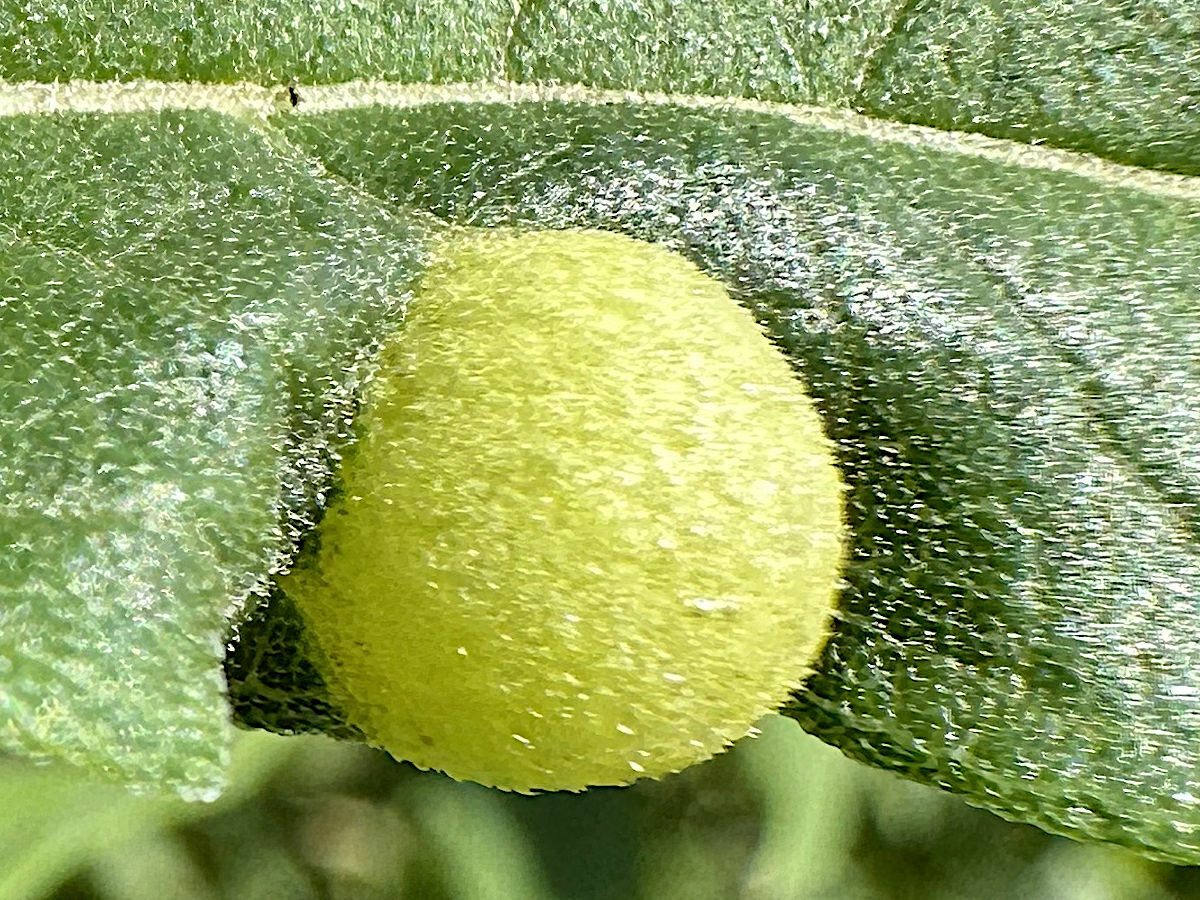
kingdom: Animalia
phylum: Arthropoda
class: Insecta
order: Diptera
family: Cecidomyiidae
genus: Pilodiplosis
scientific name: Pilodiplosis helianthibulla
